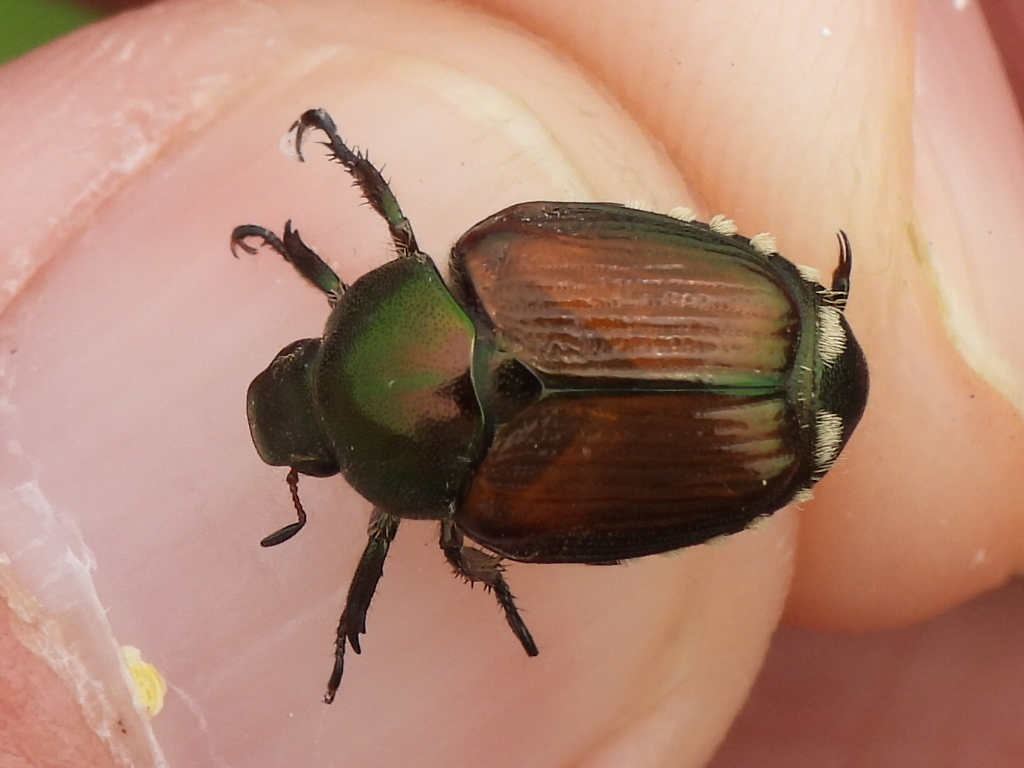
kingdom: Animalia
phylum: Arthropoda
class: Insecta
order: Coleoptera
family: Scarabaeidae
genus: Popillia
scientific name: Popillia japonica
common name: Japanese beetle
